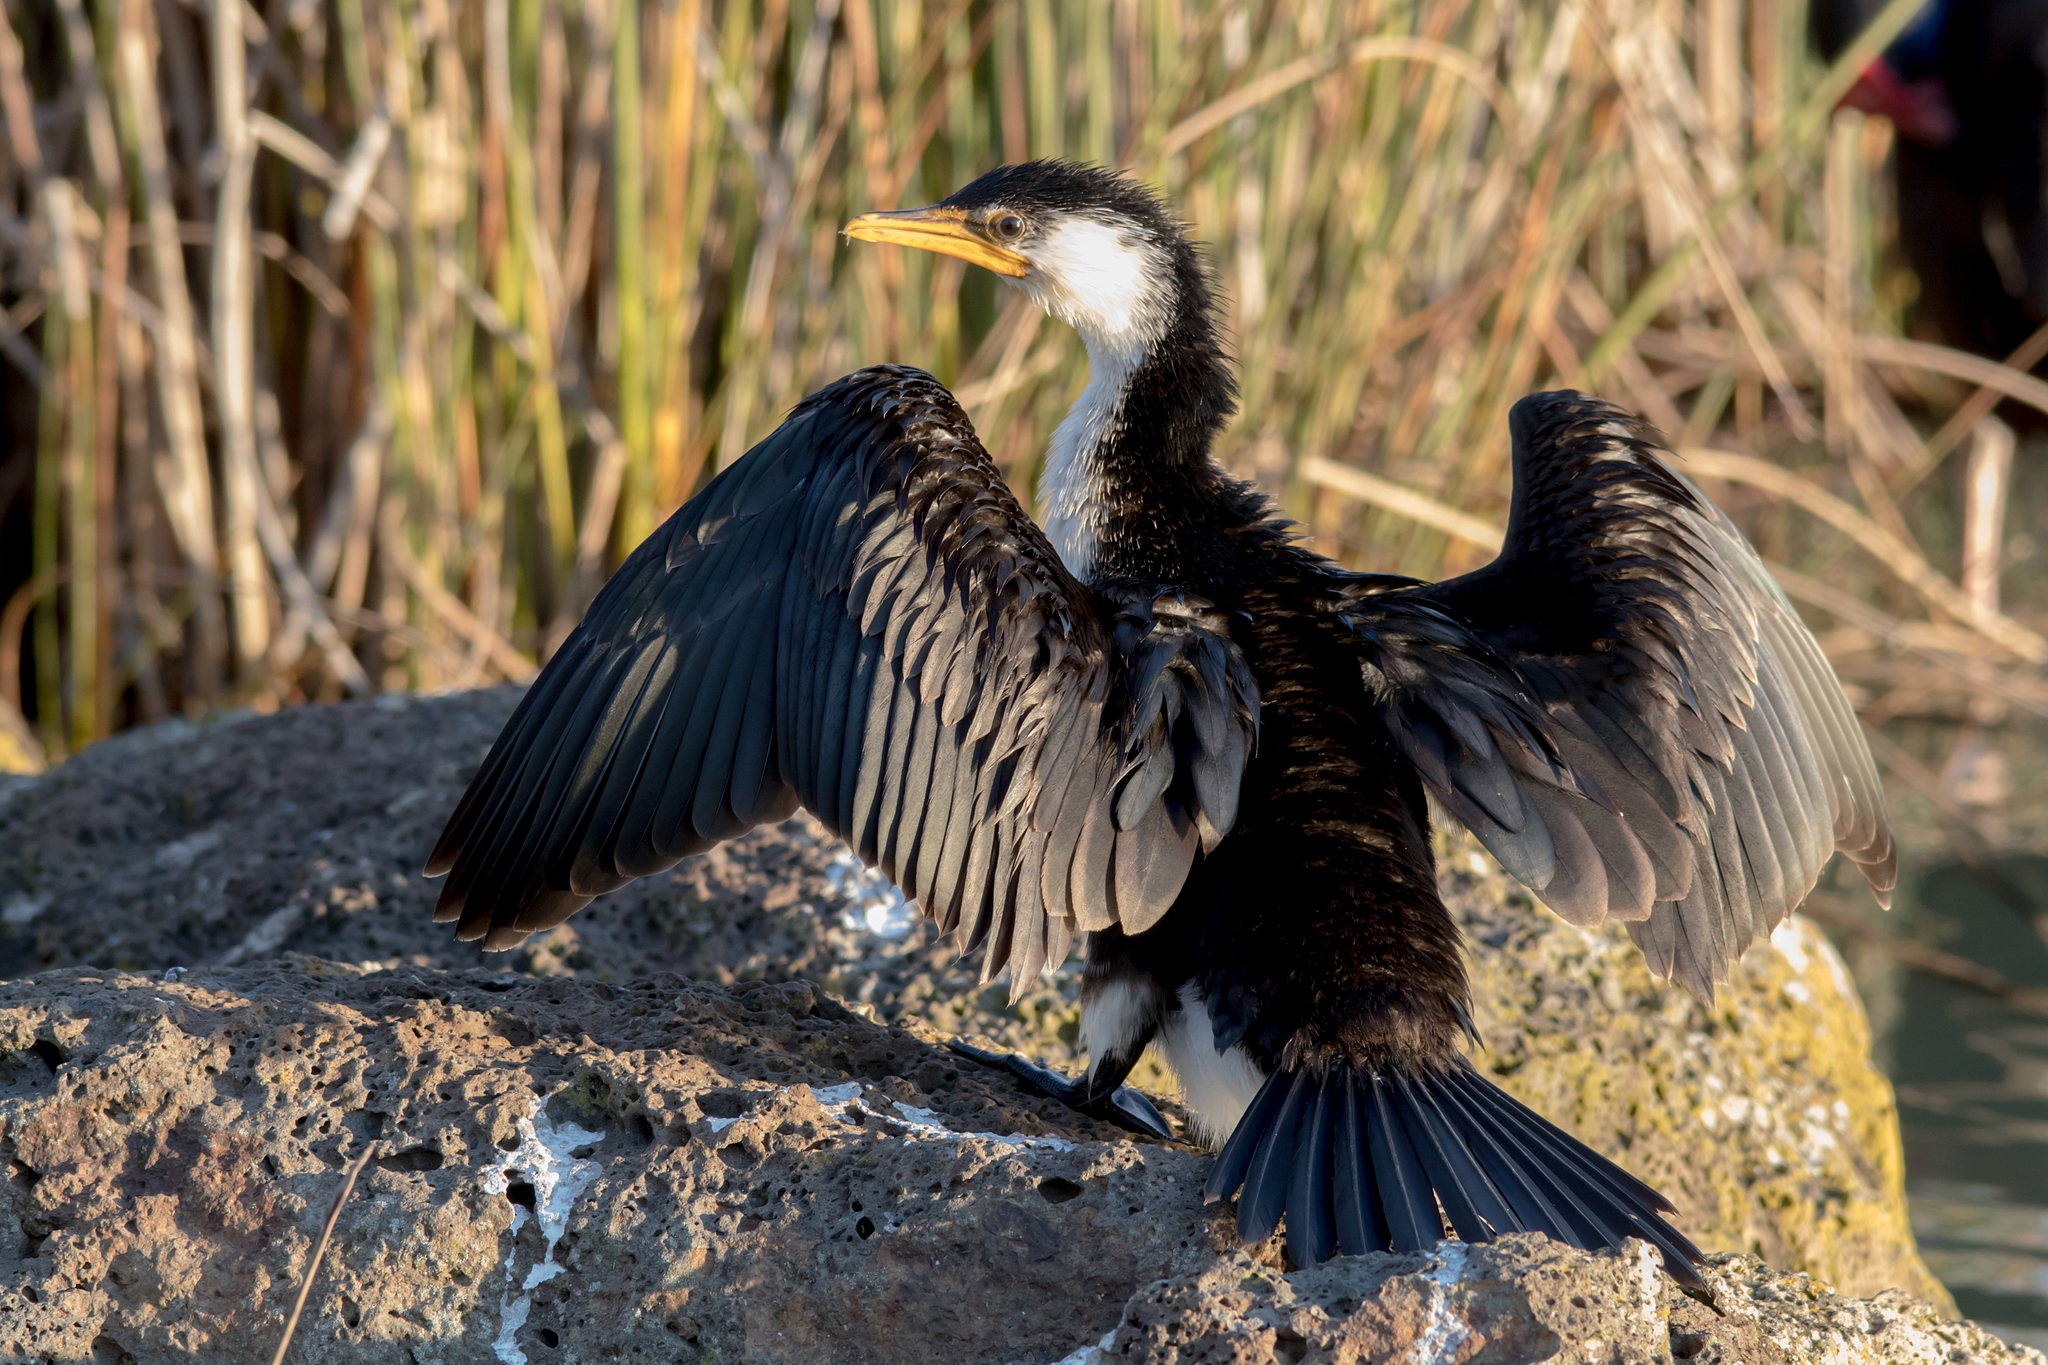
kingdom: Animalia
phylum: Chordata
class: Aves
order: Suliformes
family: Phalacrocoracidae
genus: Microcarbo
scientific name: Microcarbo melanoleucos
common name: Little pied cormorant
